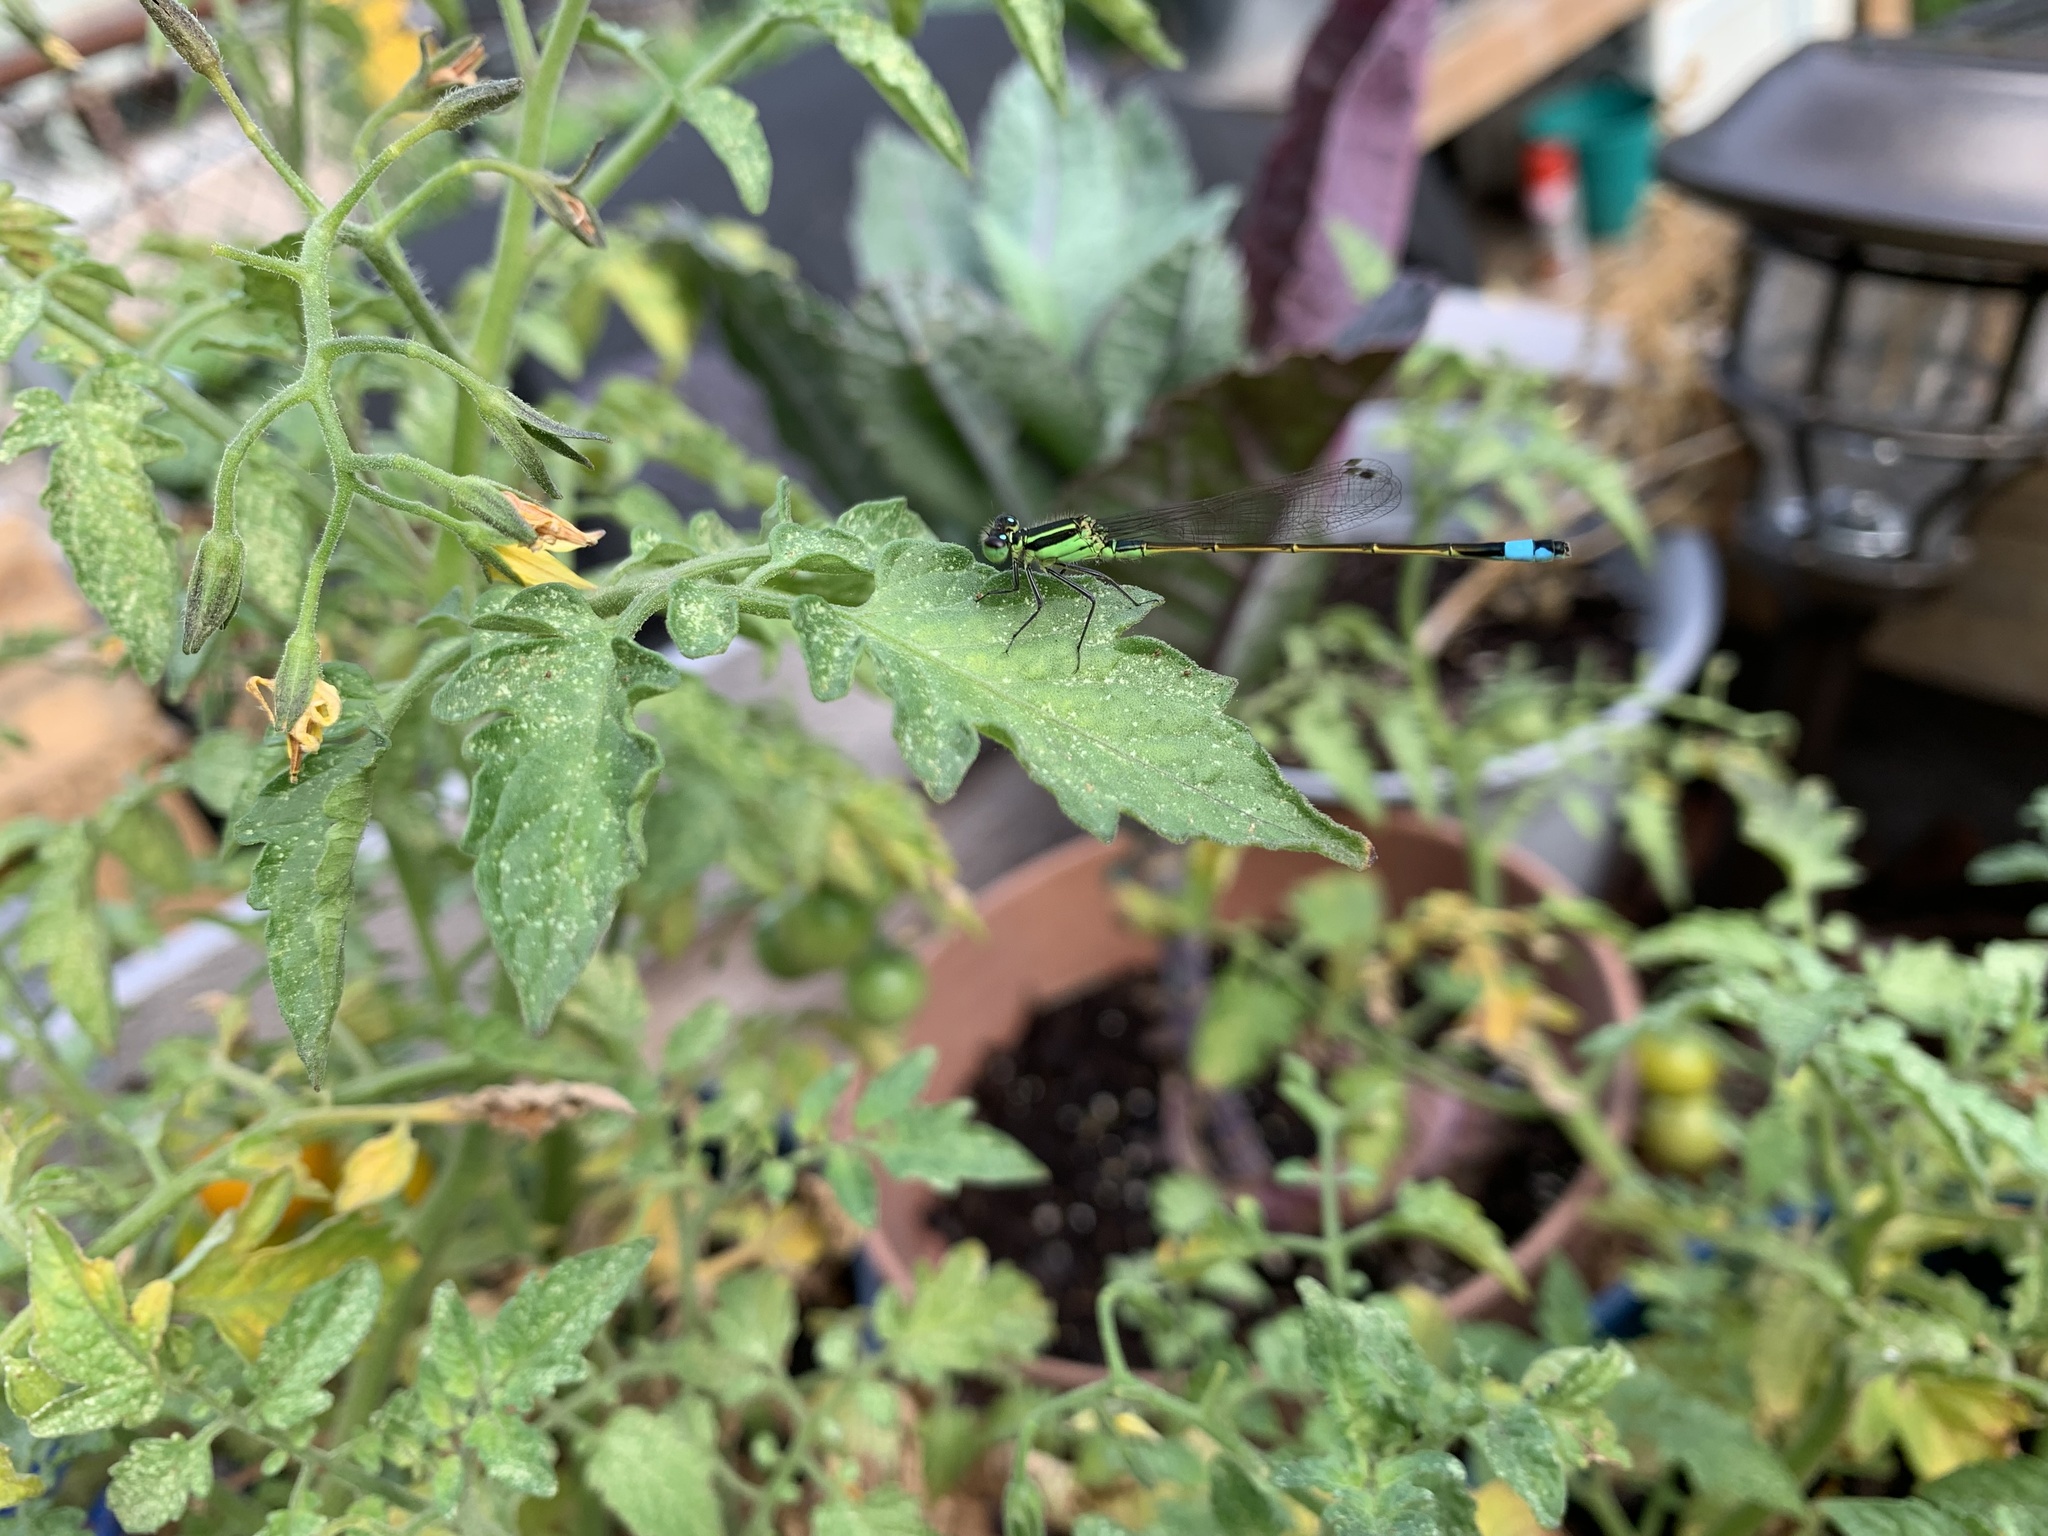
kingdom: Animalia
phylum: Arthropoda
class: Insecta
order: Odonata
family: Coenagrionidae
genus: Ischnura
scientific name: Ischnura ramburii
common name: Rambur's forktail
